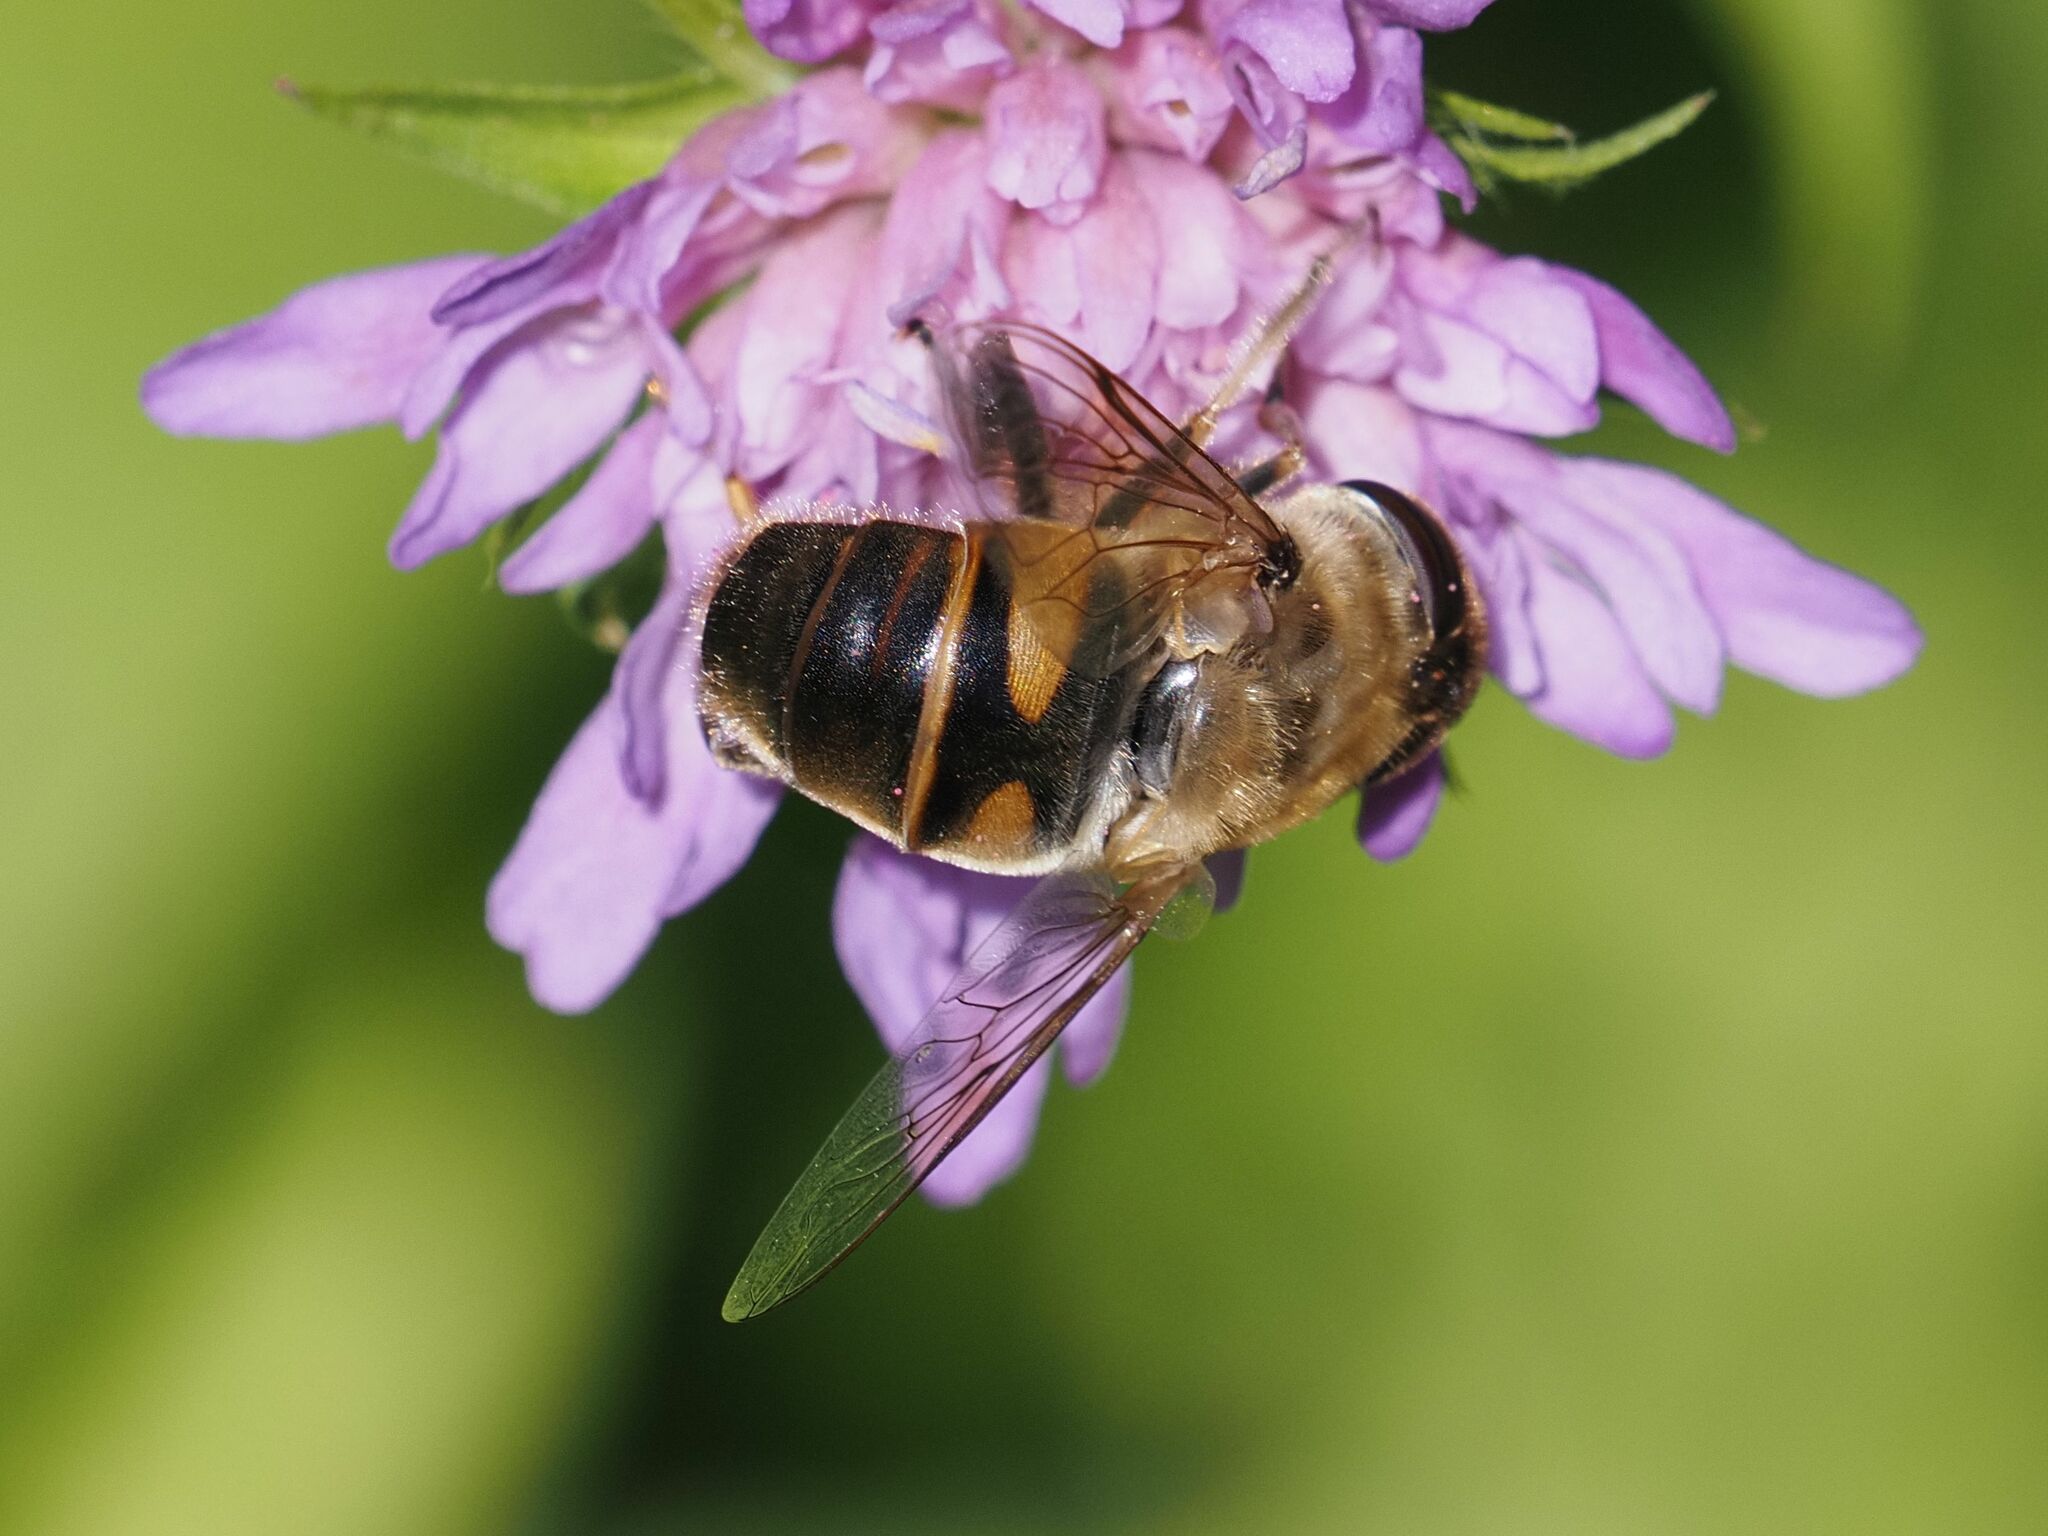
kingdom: Animalia
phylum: Arthropoda
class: Insecta
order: Diptera
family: Syrphidae
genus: Eristalis
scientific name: Eristalis tenax
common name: Drone fly
